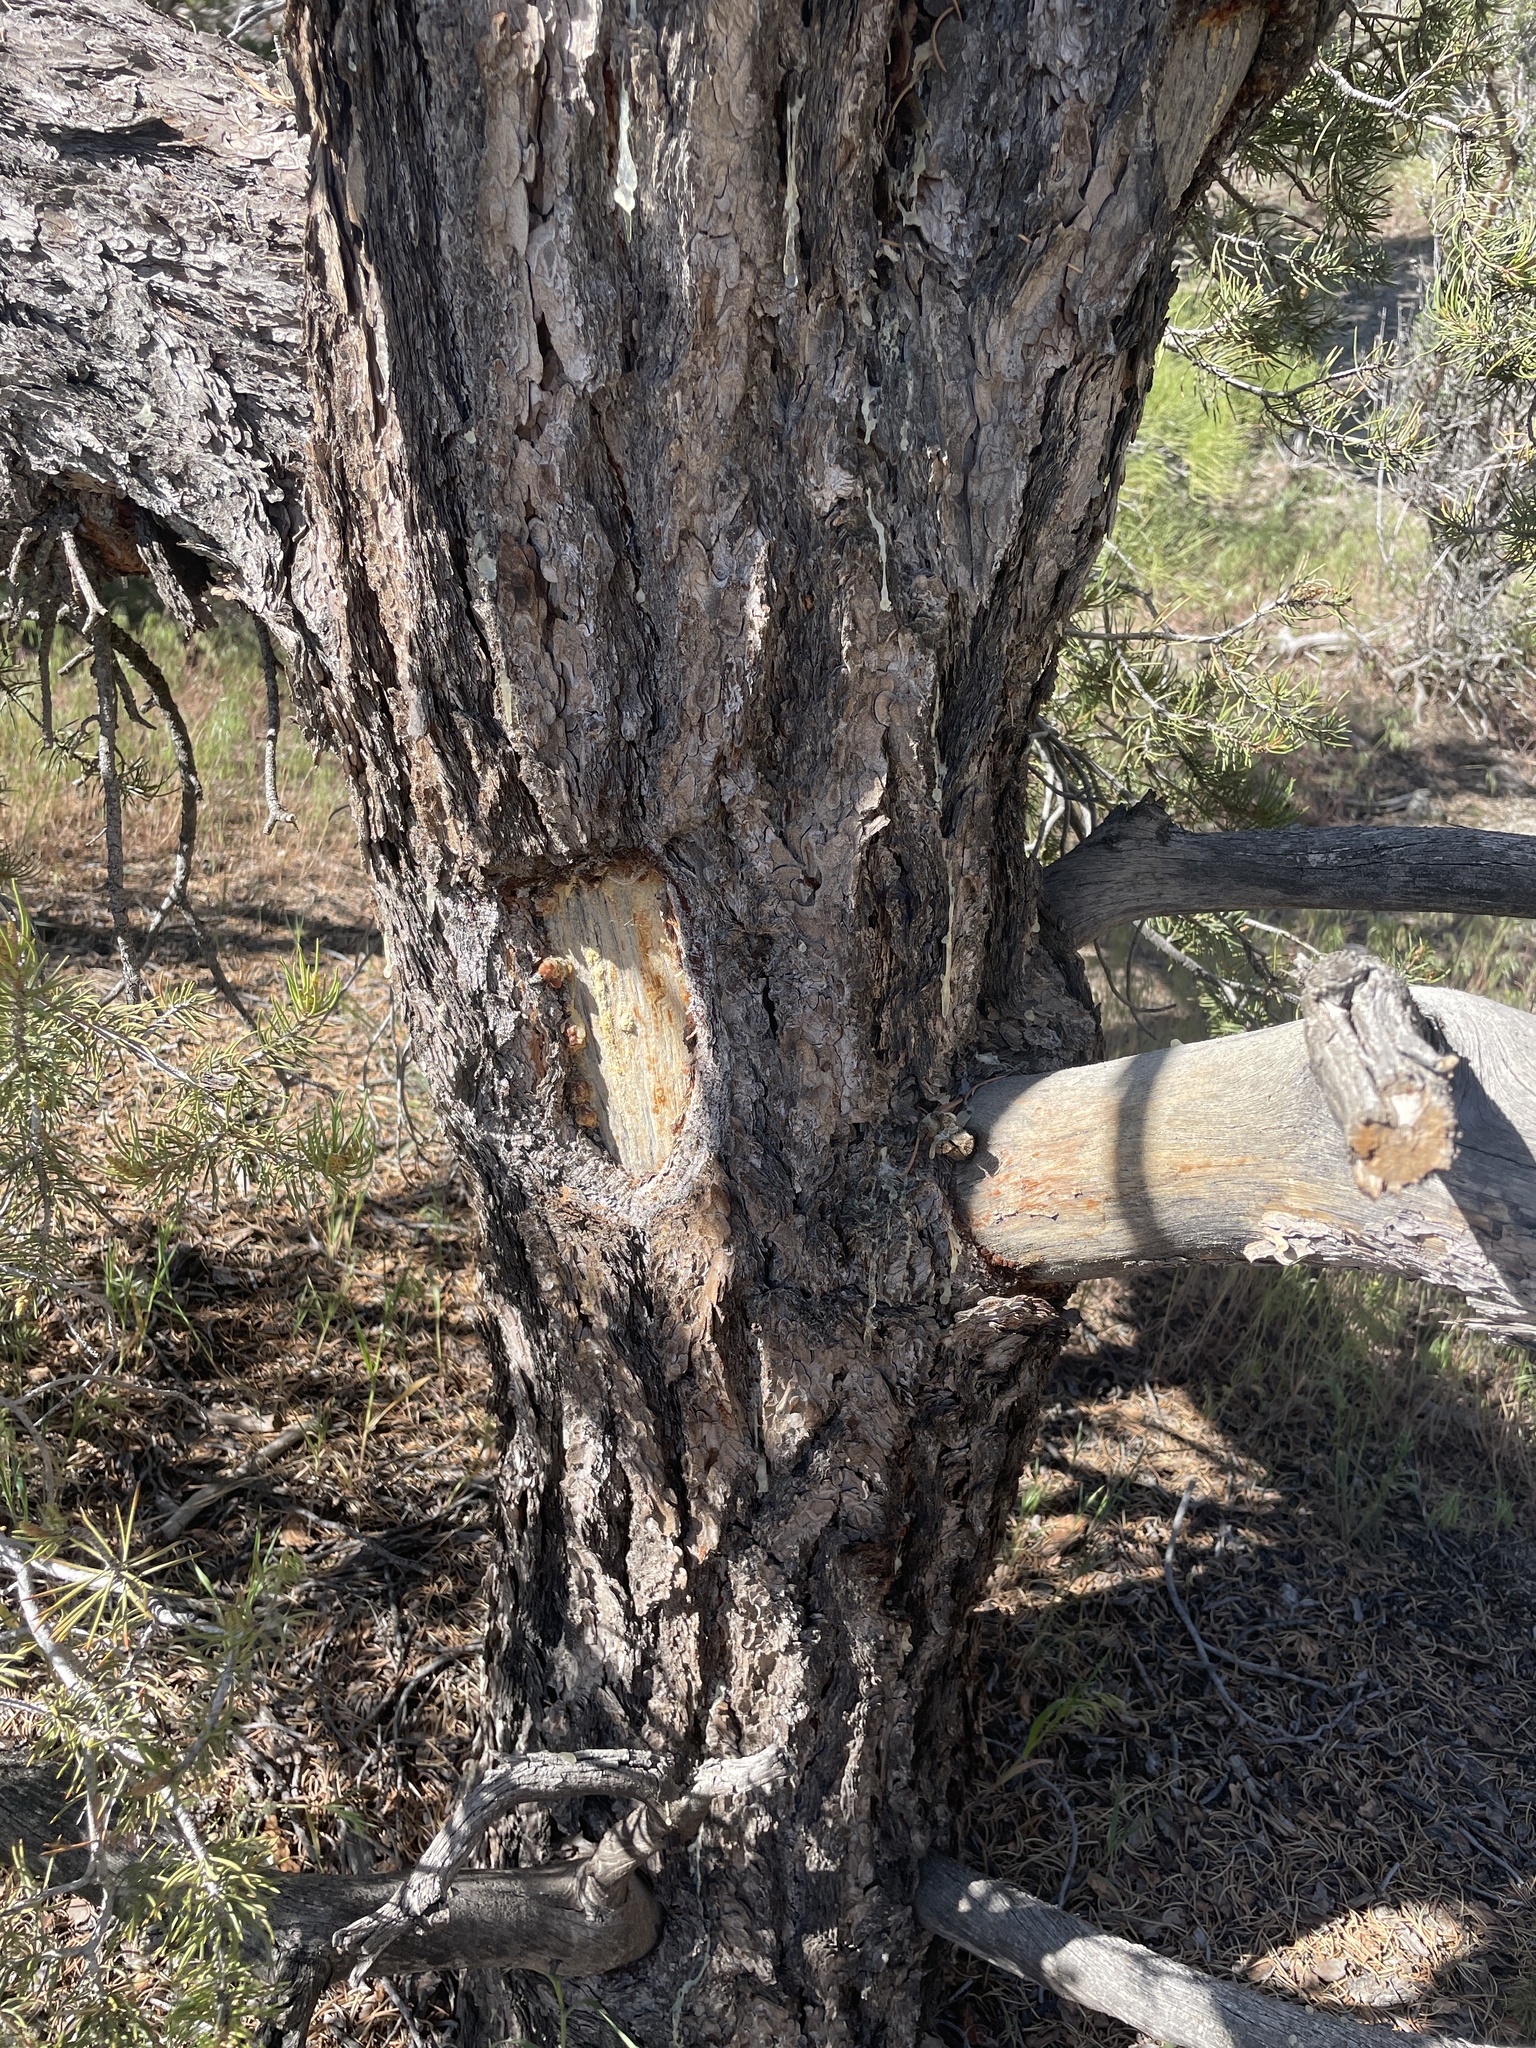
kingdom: Plantae
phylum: Tracheophyta
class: Pinopsida
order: Pinales
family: Pinaceae
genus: Pinus
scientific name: Pinus monophylla
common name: One-leaved nut pine
